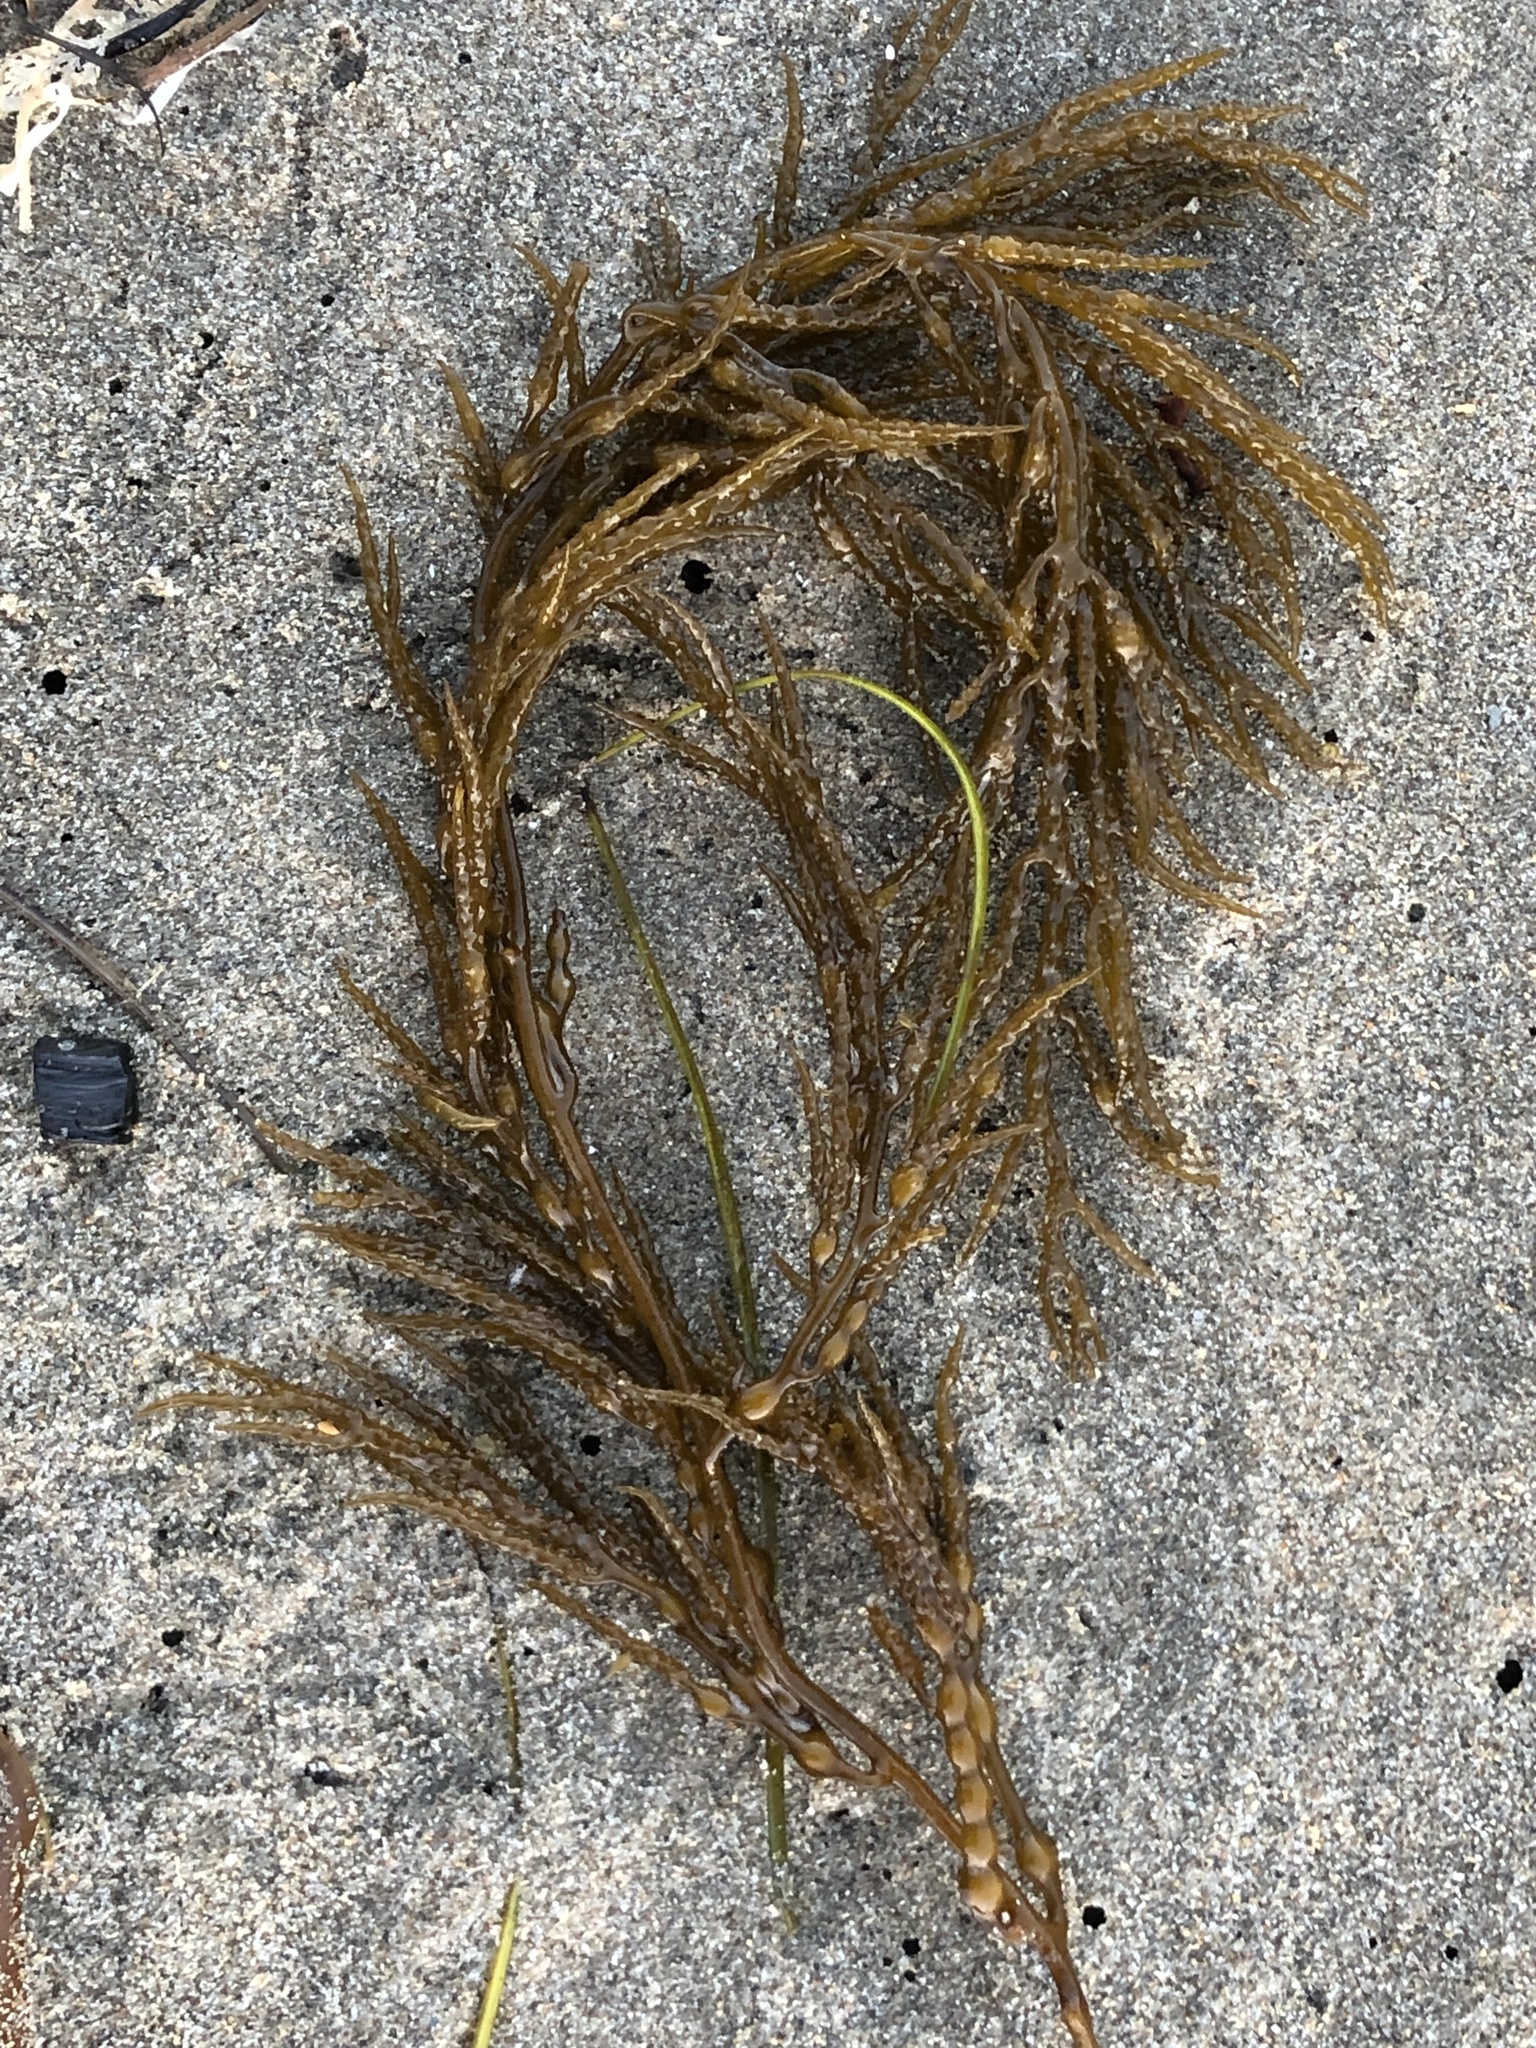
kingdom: Chromista
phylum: Ochrophyta
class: Phaeophyceae
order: Fucales
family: Sargassaceae
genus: Stephanocystis
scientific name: Stephanocystis
